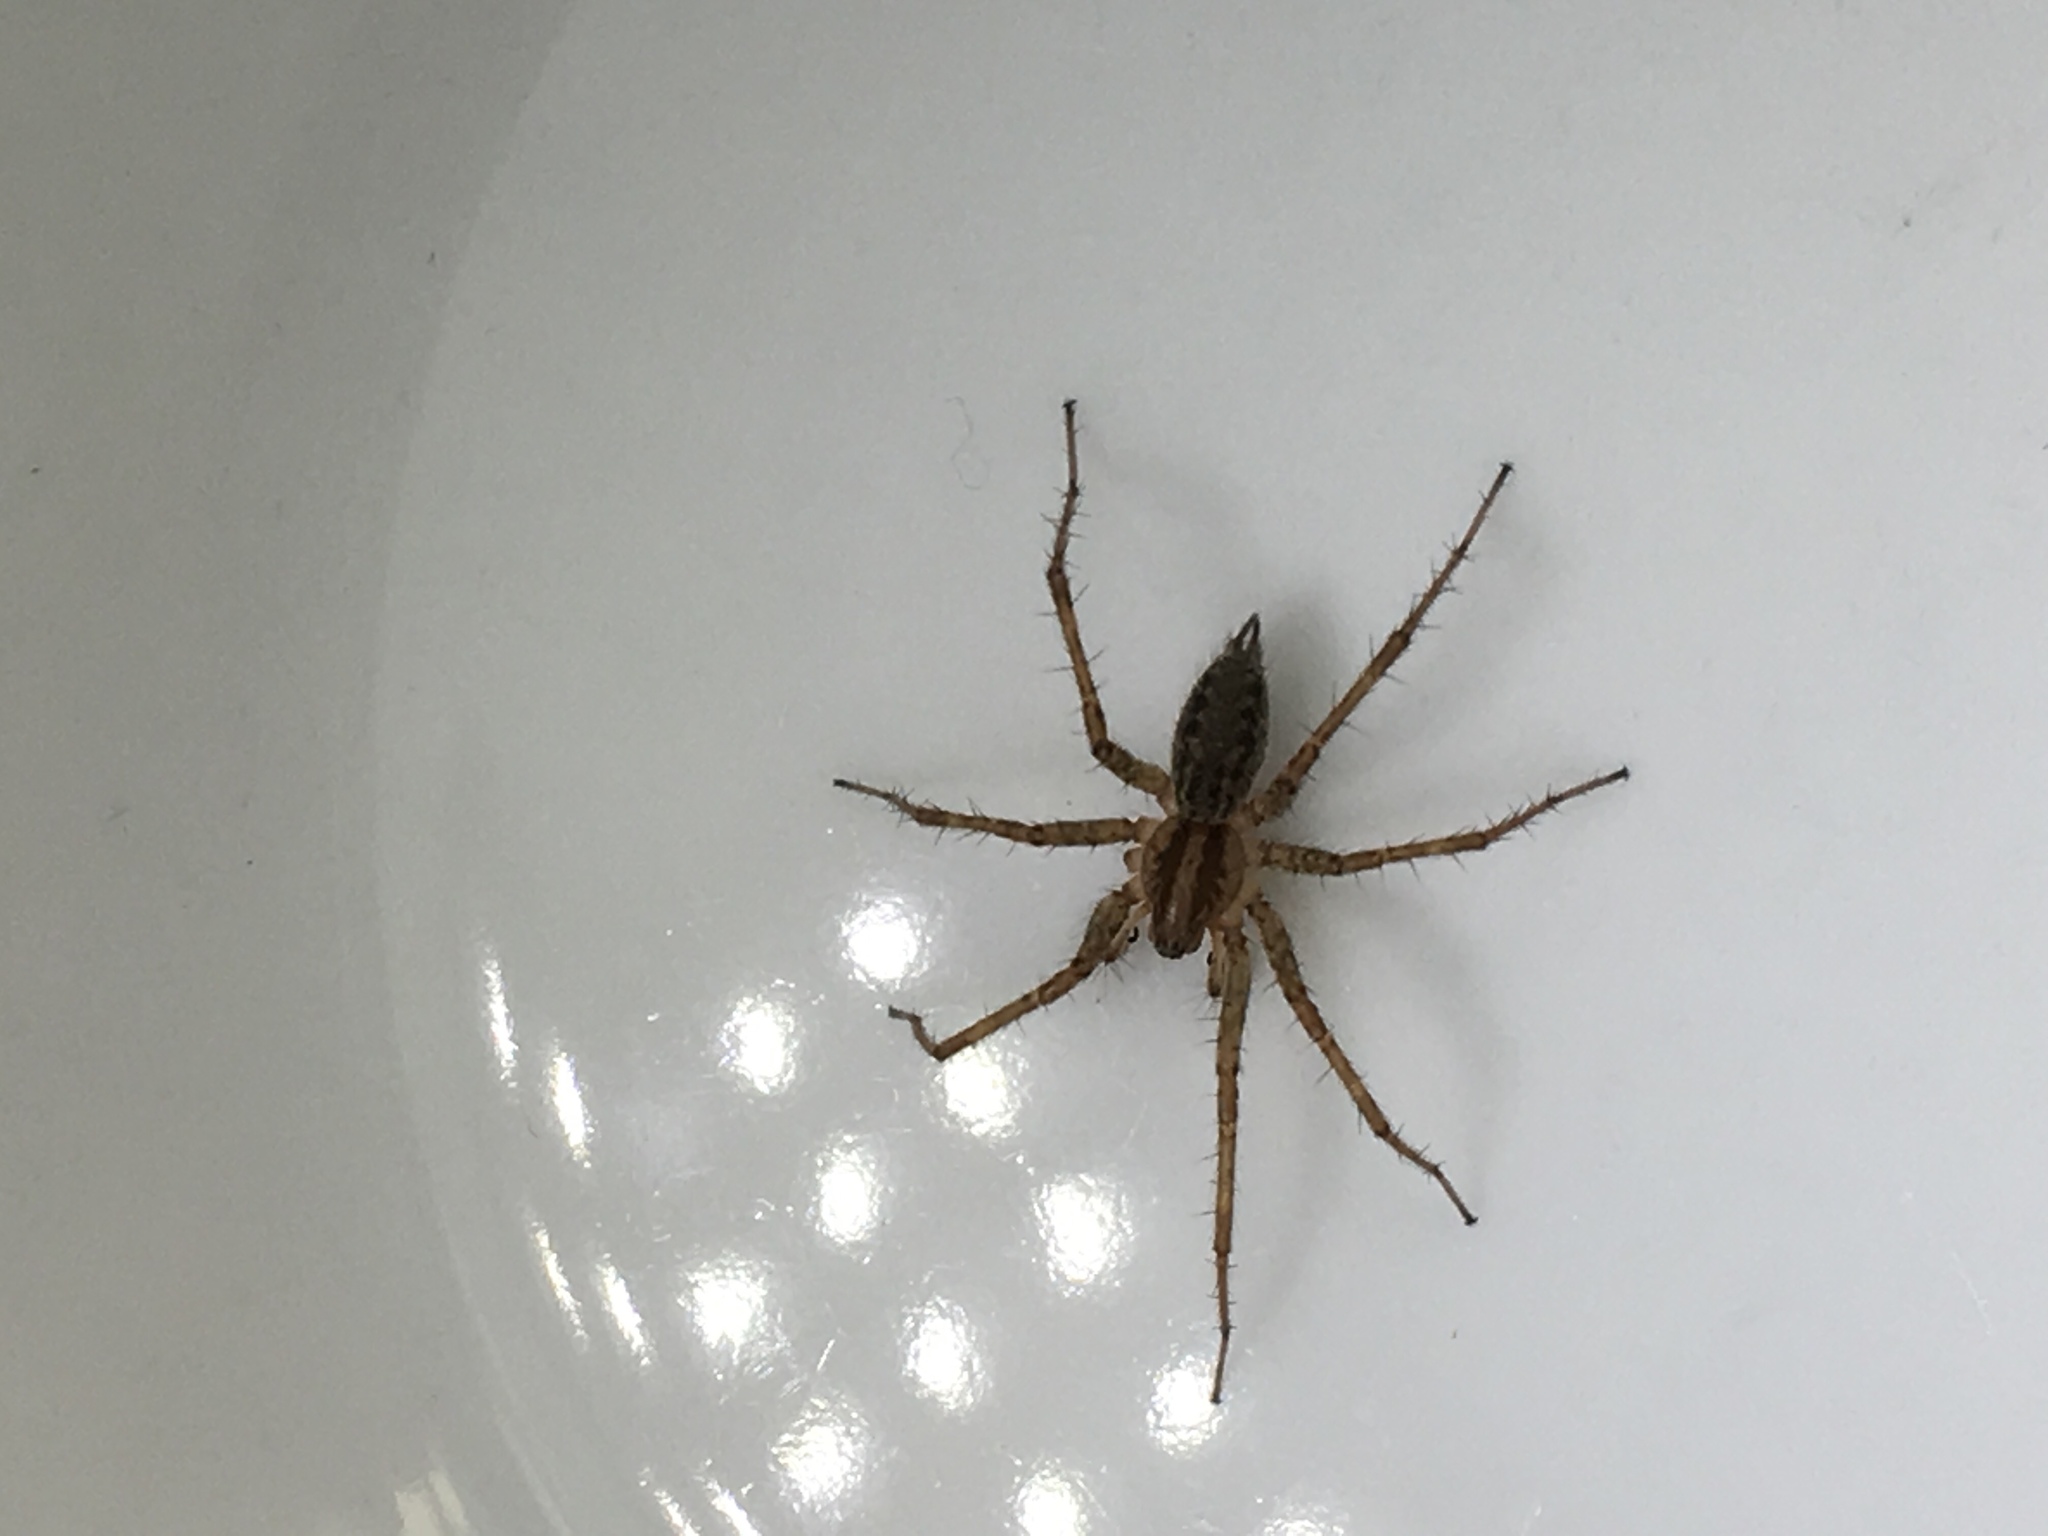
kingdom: Animalia
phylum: Arthropoda
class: Arachnida
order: Araneae
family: Agelenidae
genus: Agelenopsis
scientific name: Agelenopsis utahana
